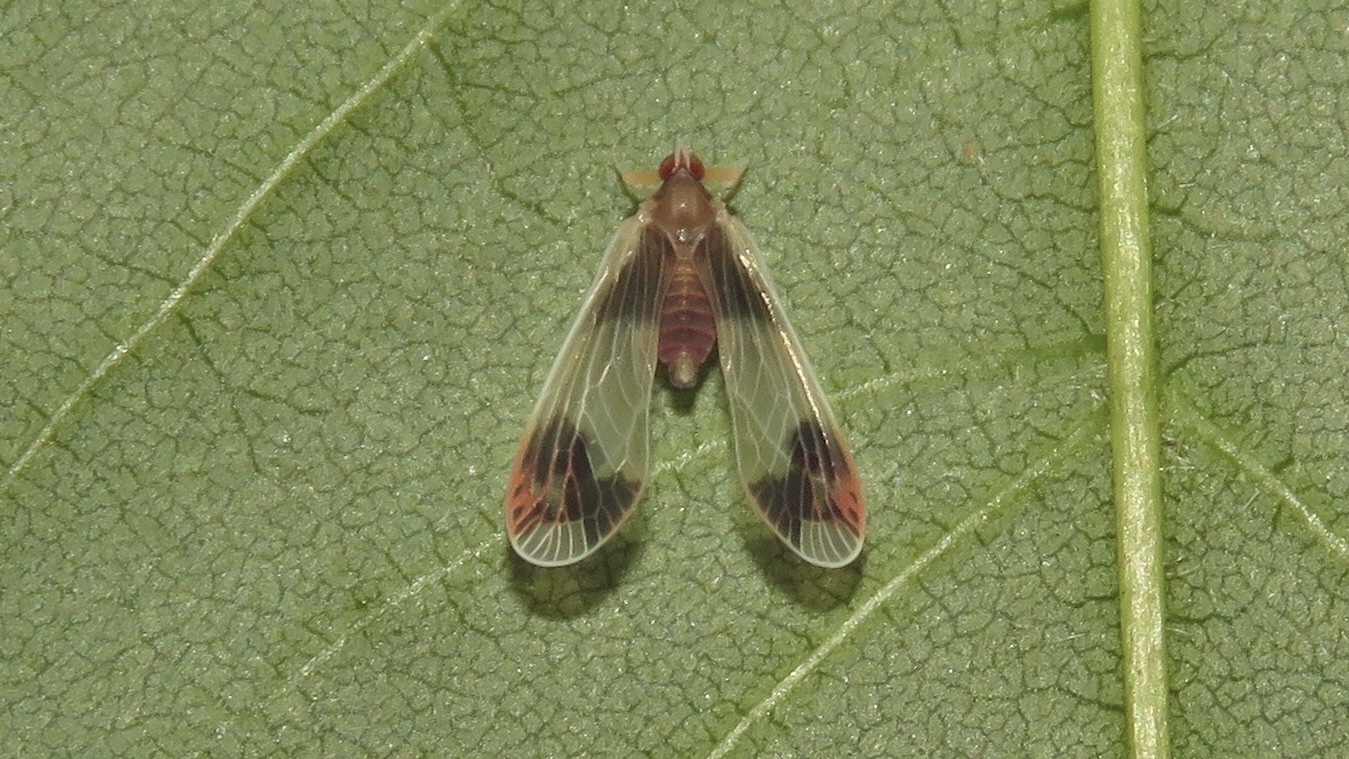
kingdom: Animalia
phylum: Arthropoda
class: Insecta
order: Hemiptera
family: Derbidae
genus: Anotia
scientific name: Anotia uhleri
